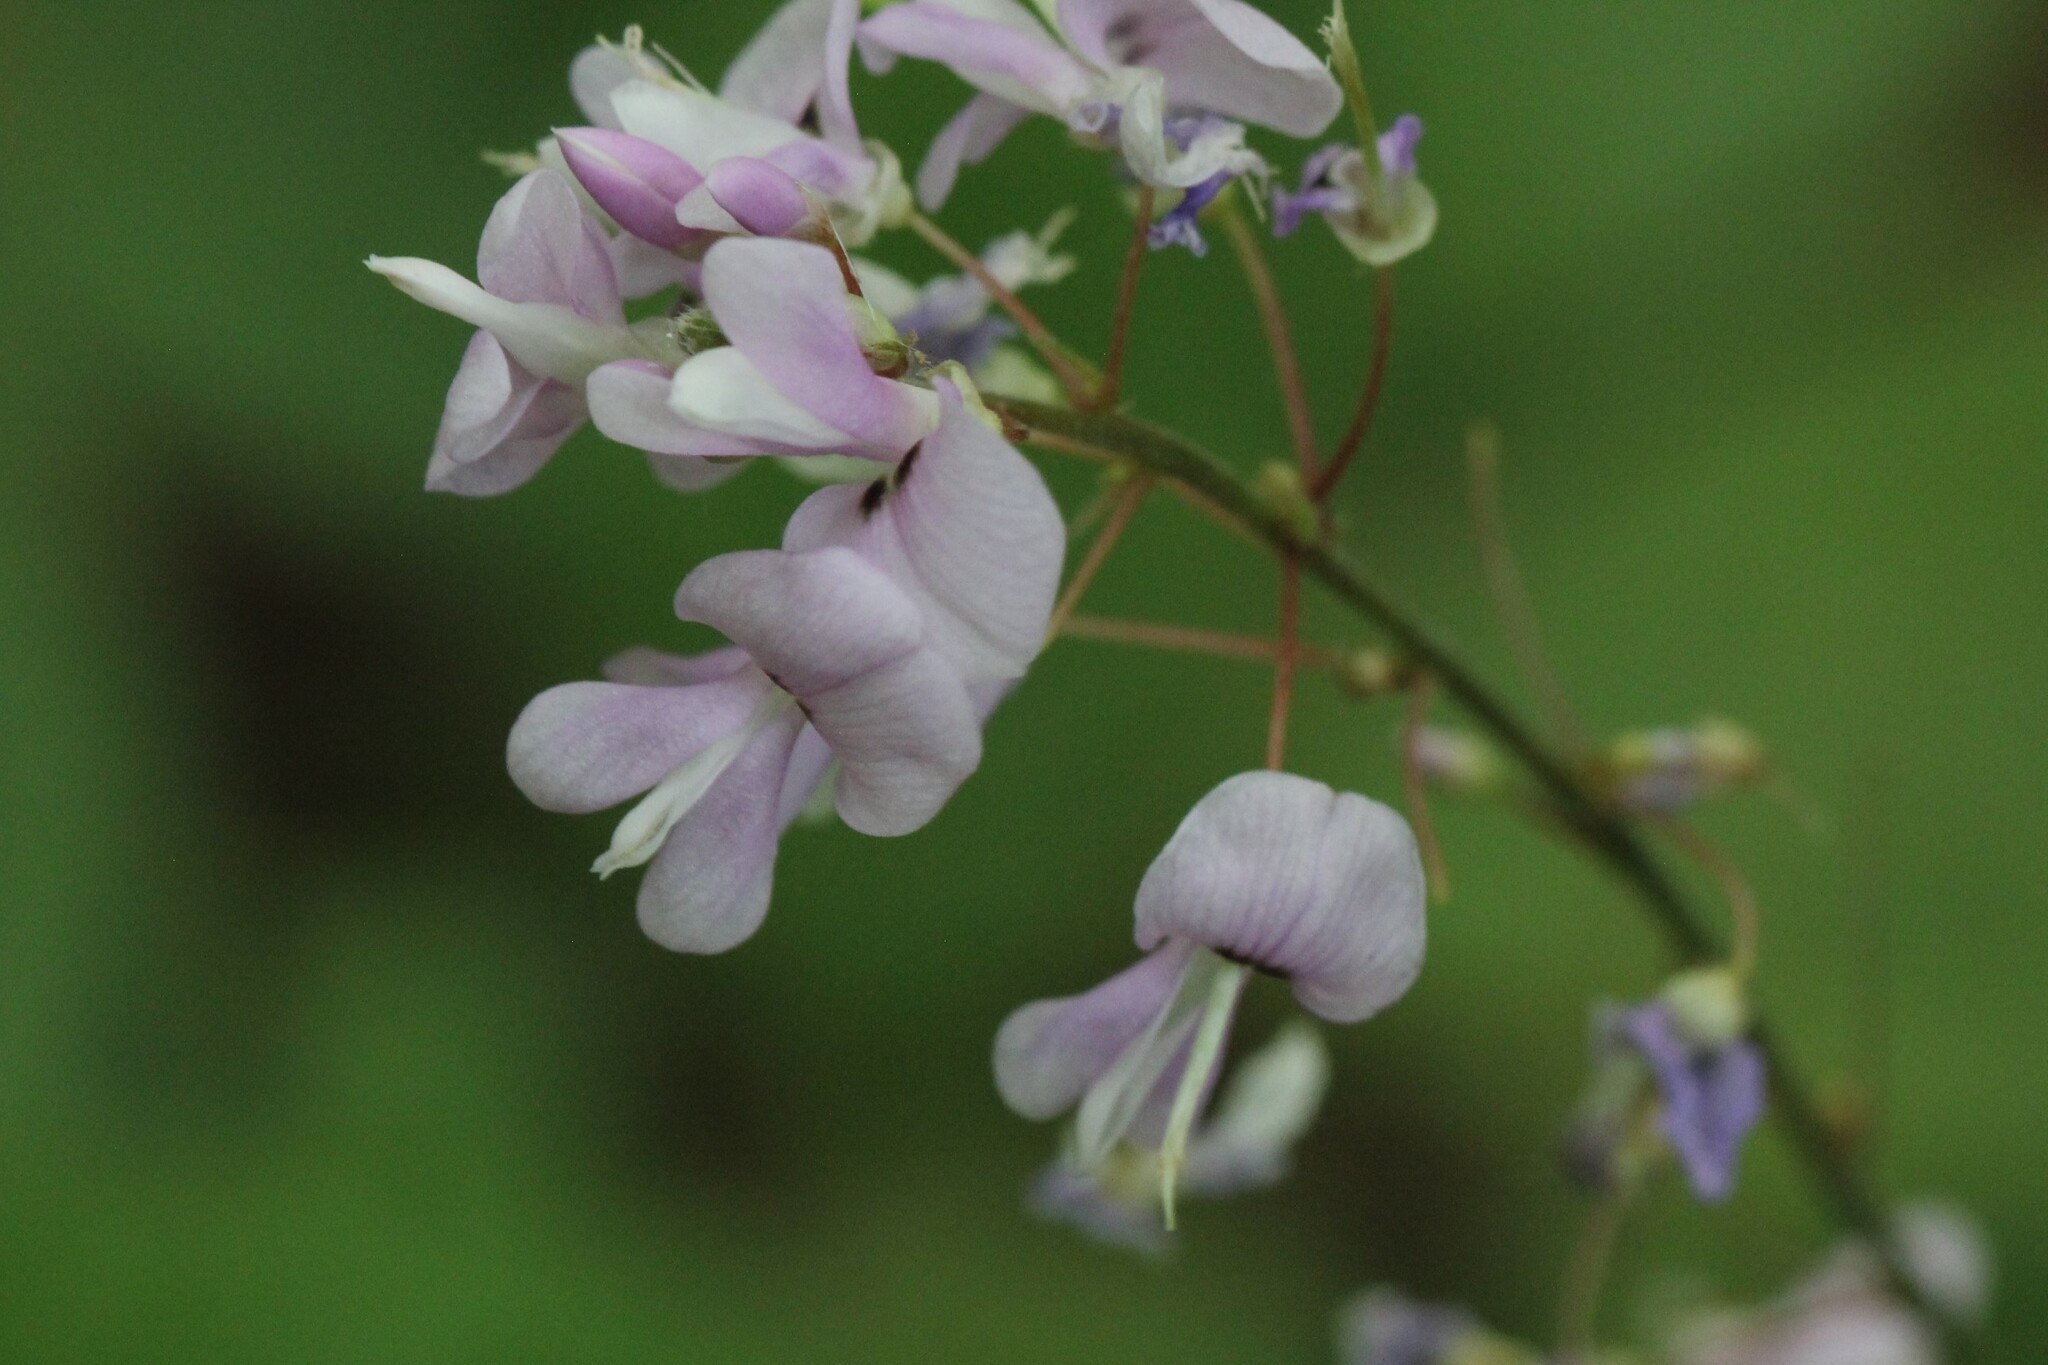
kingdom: Plantae
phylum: Tracheophyta
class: Magnoliopsida
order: Fabales
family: Fabaceae
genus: Hylodesmum
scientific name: Hylodesmum nudiflorum
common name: Bare-stemmed tick-trefoil
